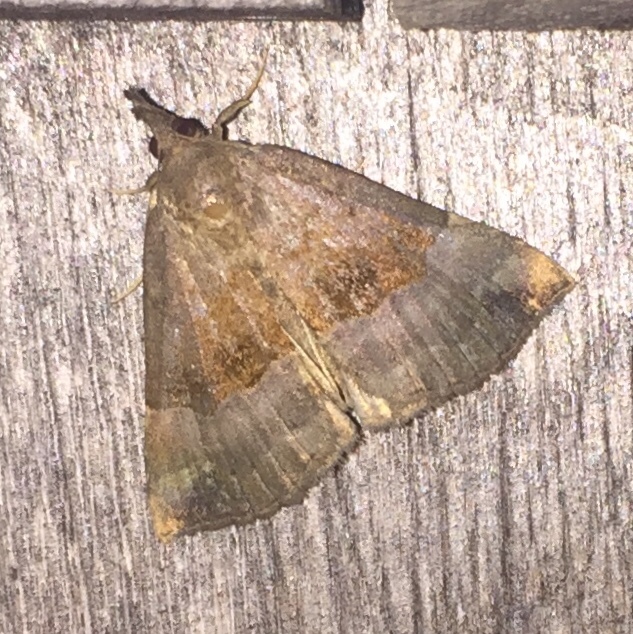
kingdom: Animalia
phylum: Arthropoda
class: Insecta
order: Lepidoptera
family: Erebidae
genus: Hypena
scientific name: Hypena madefactalis
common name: Gray-edged snout
